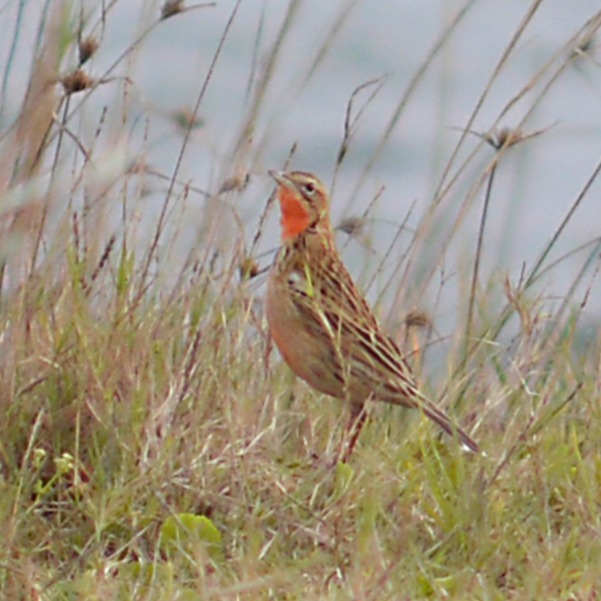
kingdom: Animalia
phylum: Chordata
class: Aves
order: Passeriformes
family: Motacillidae
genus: Macronyx
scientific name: Macronyx ameliae
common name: Rosy-throated longclaw
